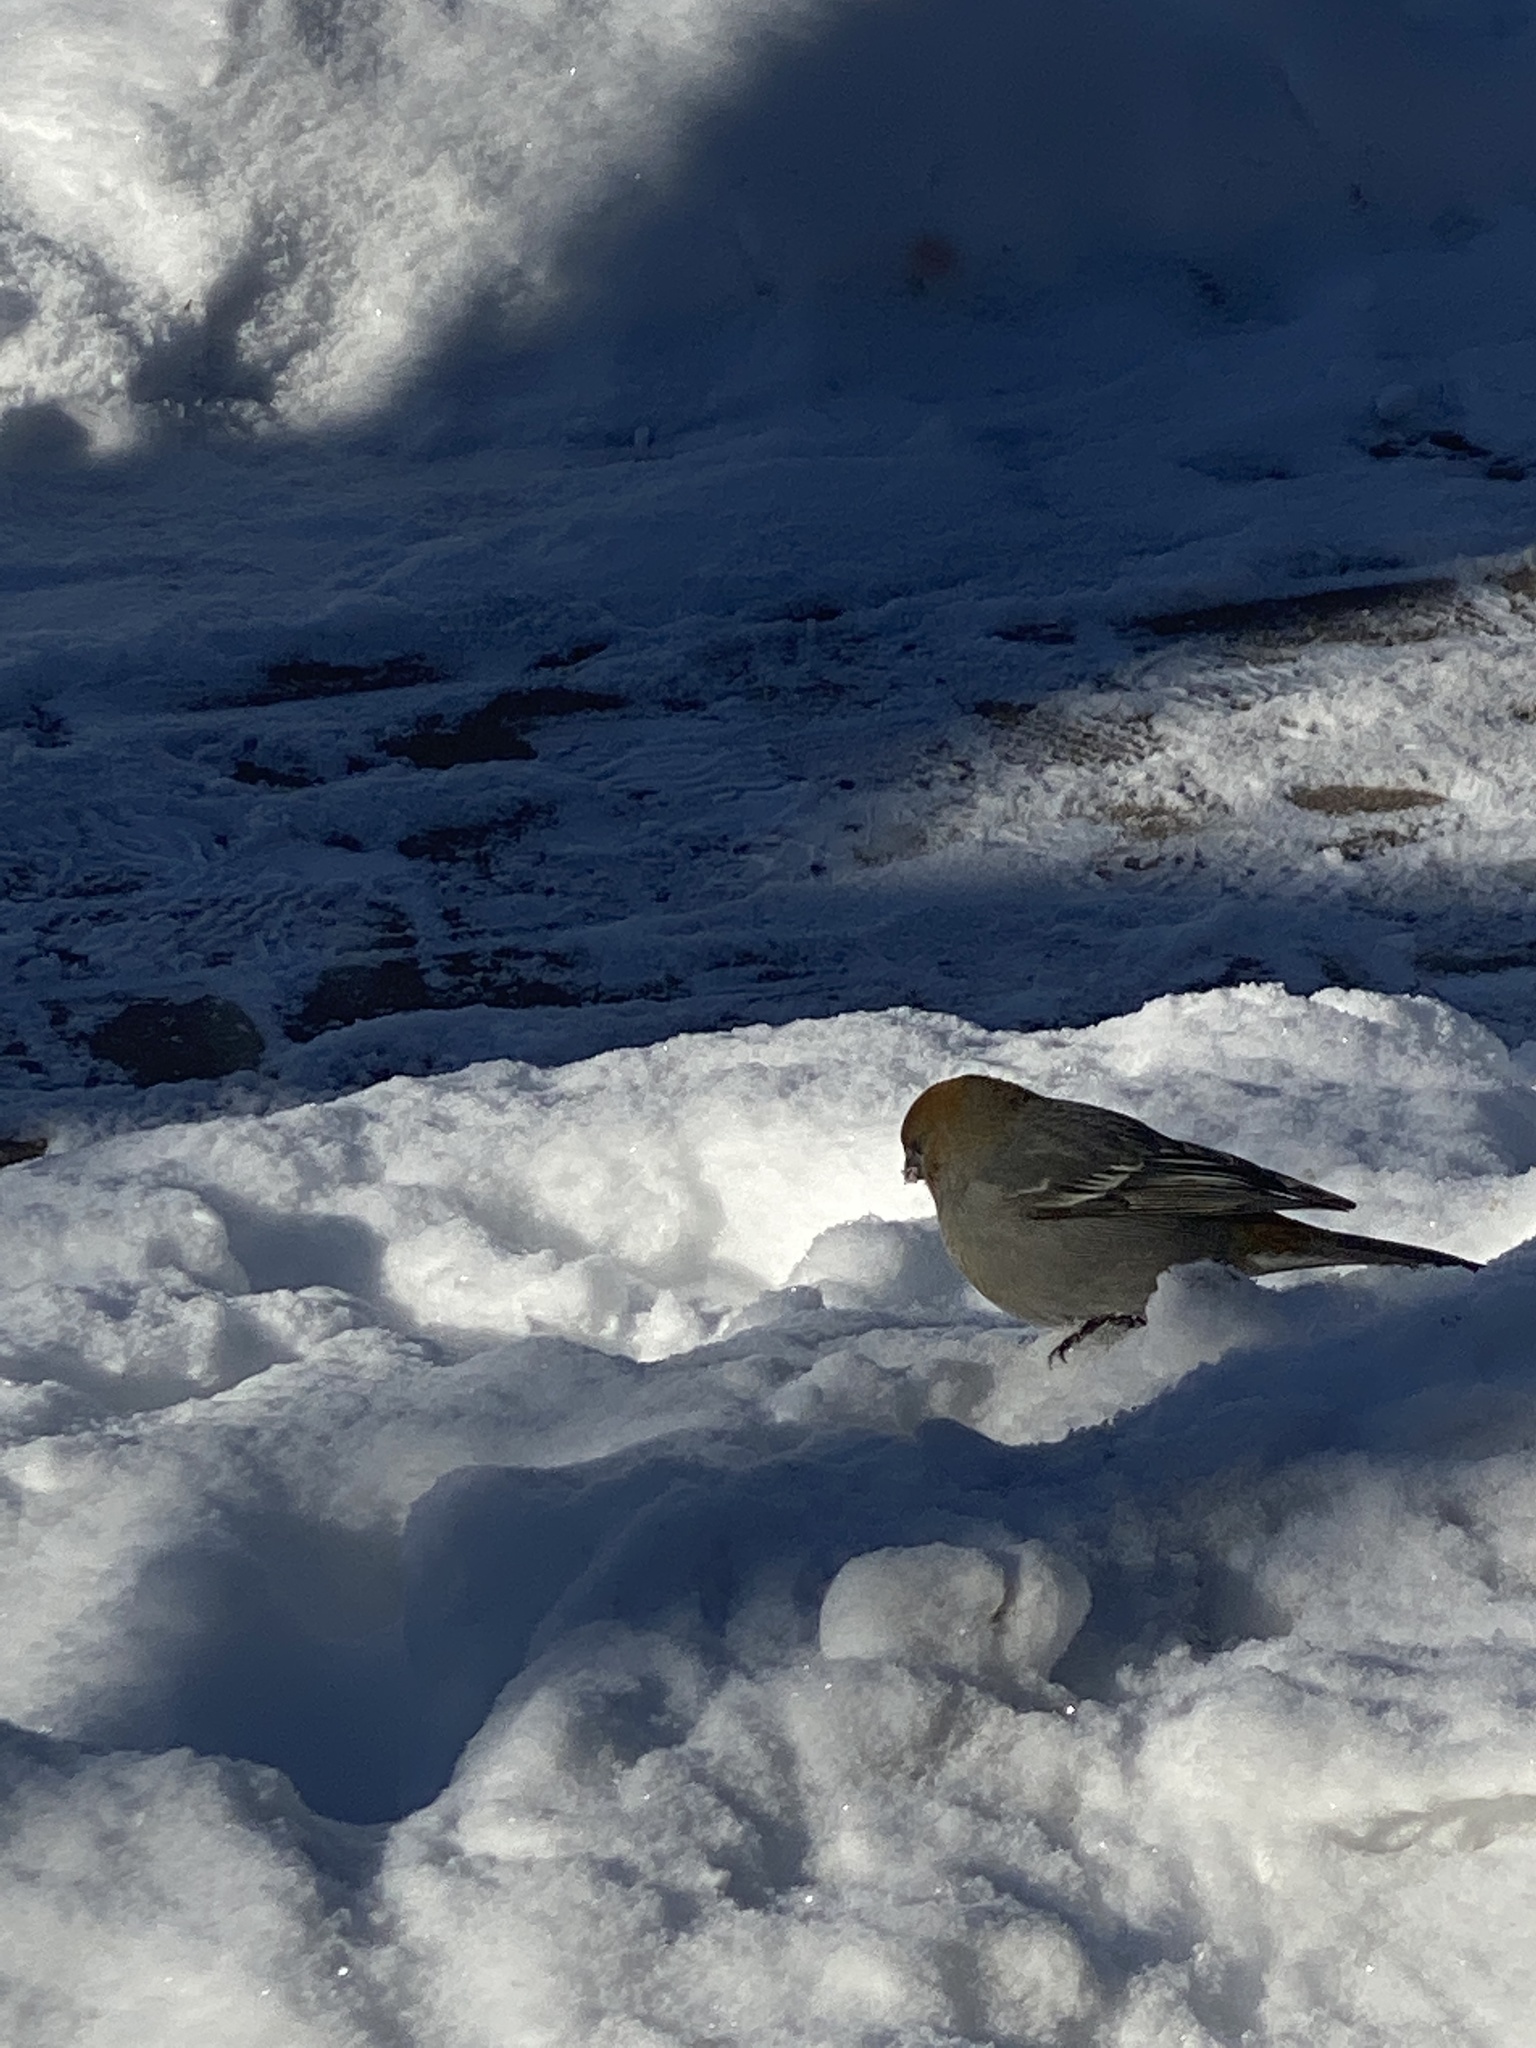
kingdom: Animalia
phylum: Chordata
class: Aves
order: Passeriformes
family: Fringillidae
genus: Pinicola
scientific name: Pinicola enucleator
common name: Pine grosbeak
